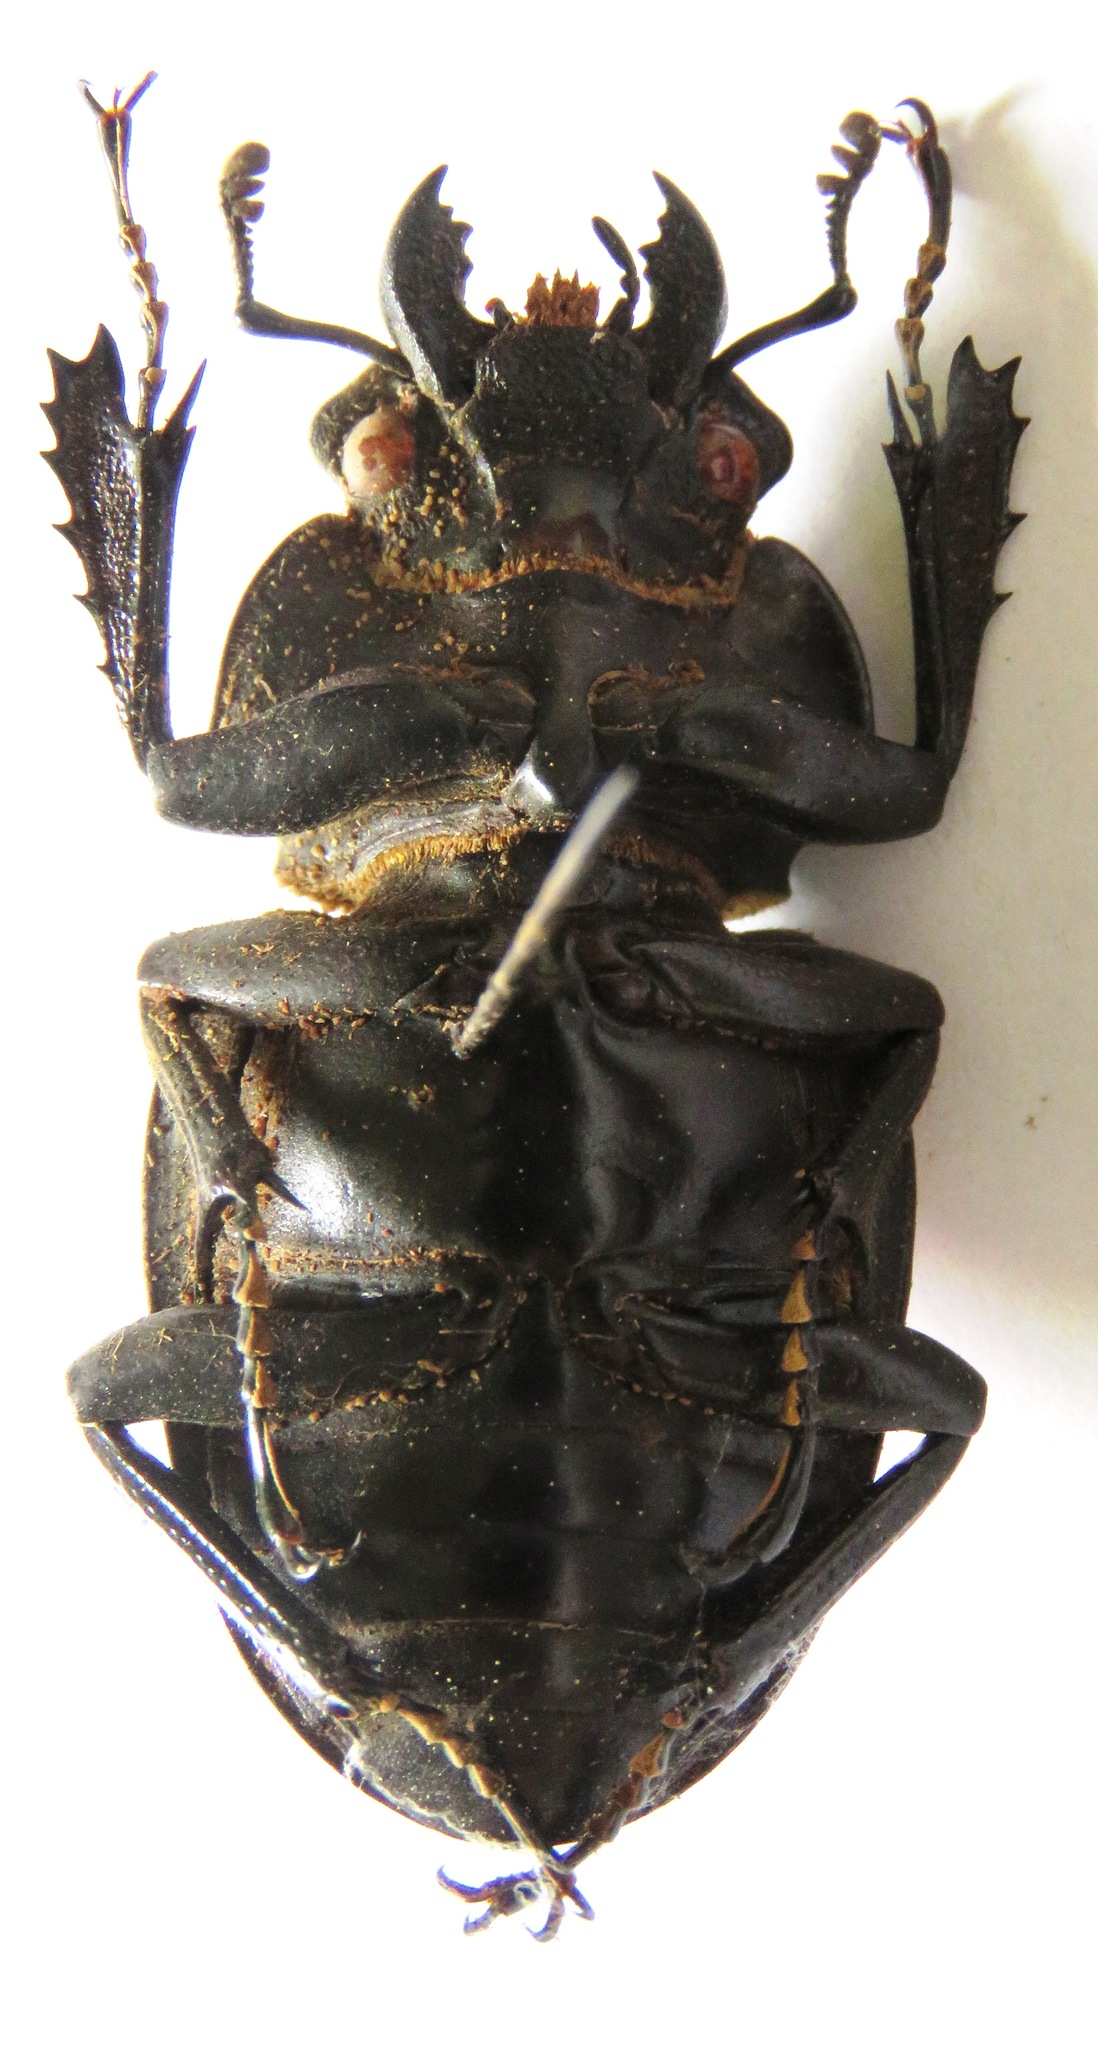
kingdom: Animalia
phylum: Arthropoda
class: Insecta
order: Coleoptera
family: Lucanidae
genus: Odontolabis
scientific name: Odontolabis cuvera
